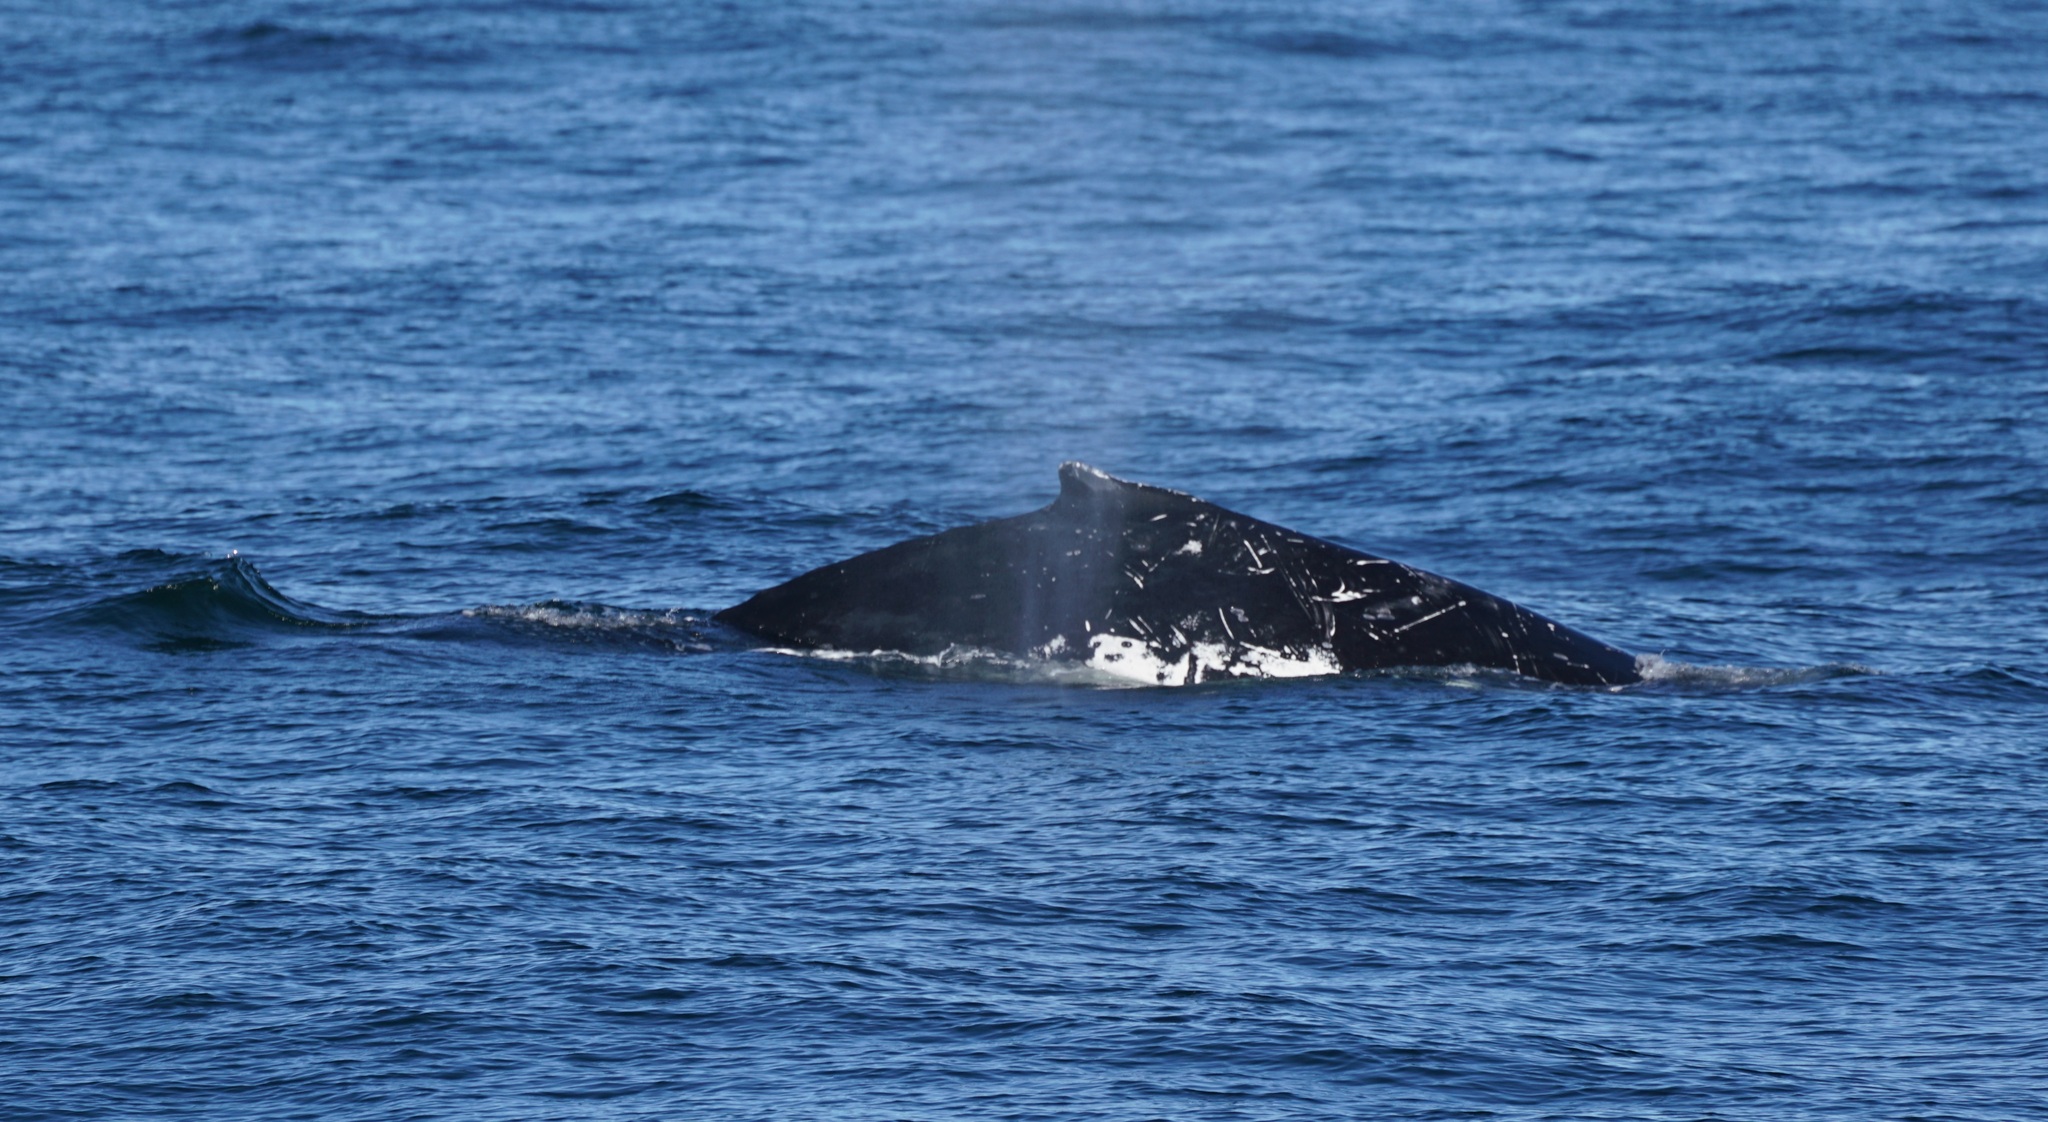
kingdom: Animalia
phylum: Chordata
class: Mammalia
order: Cetacea
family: Balaenopteridae
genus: Megaptera
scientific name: Megaptera novaeangliae
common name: Humpback whale
